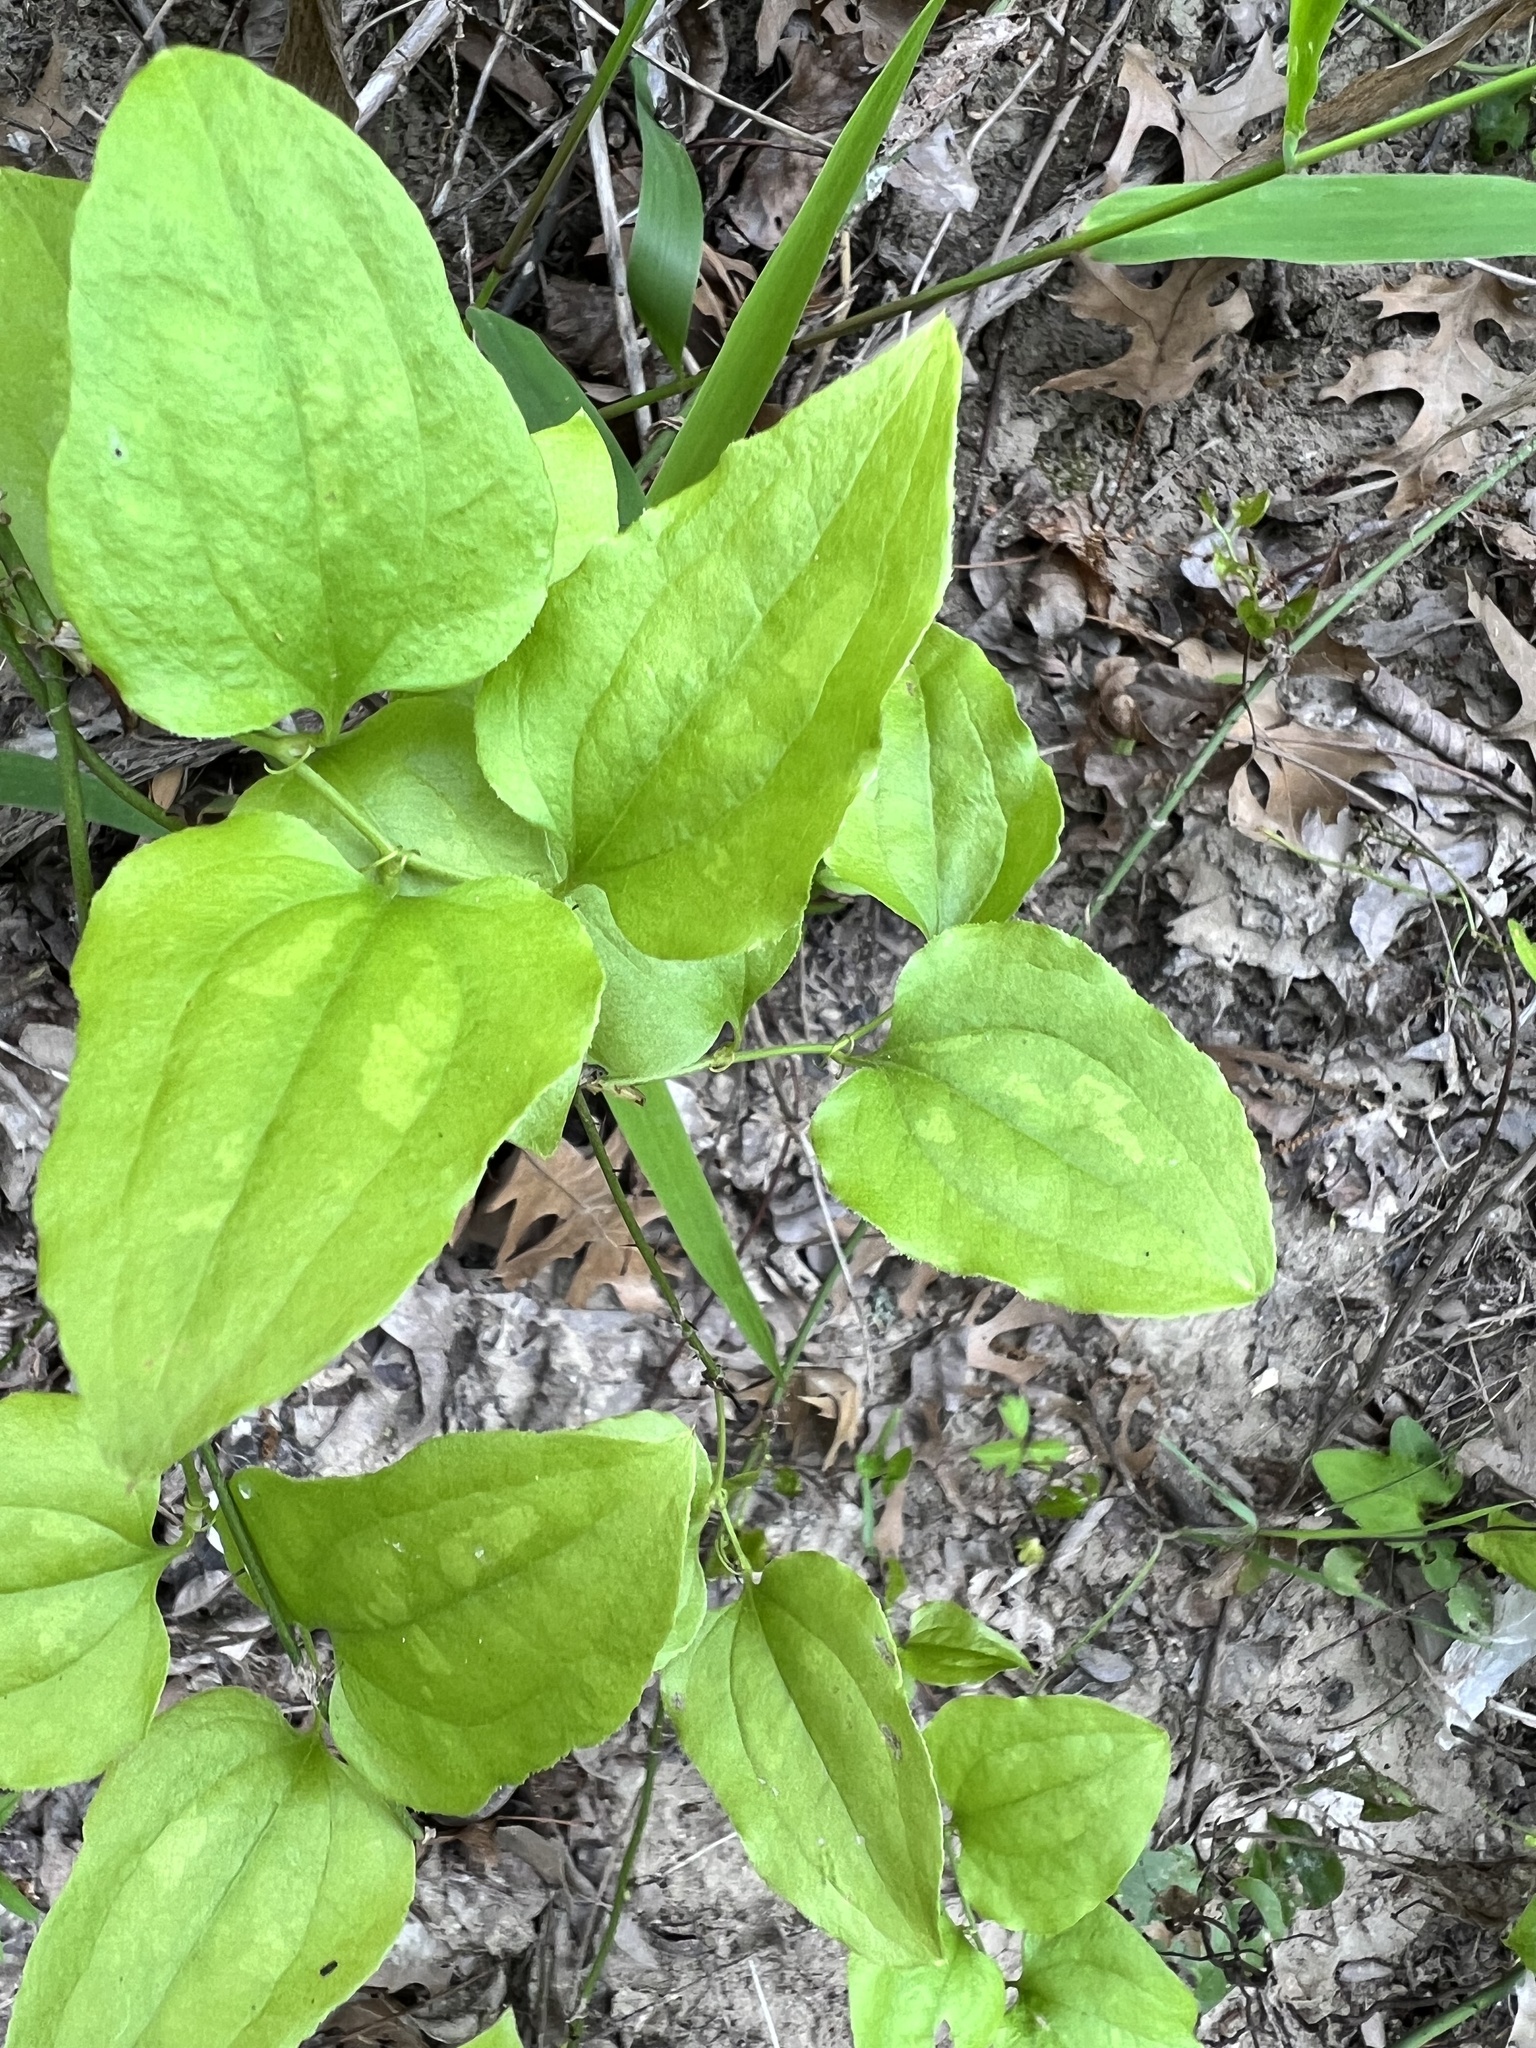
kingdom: Plantae
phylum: Tracheophyta
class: Liliopsida
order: Liliales
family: Smilacaceae
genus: Smilax
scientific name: Smilax tamnoides
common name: Hellfetter
